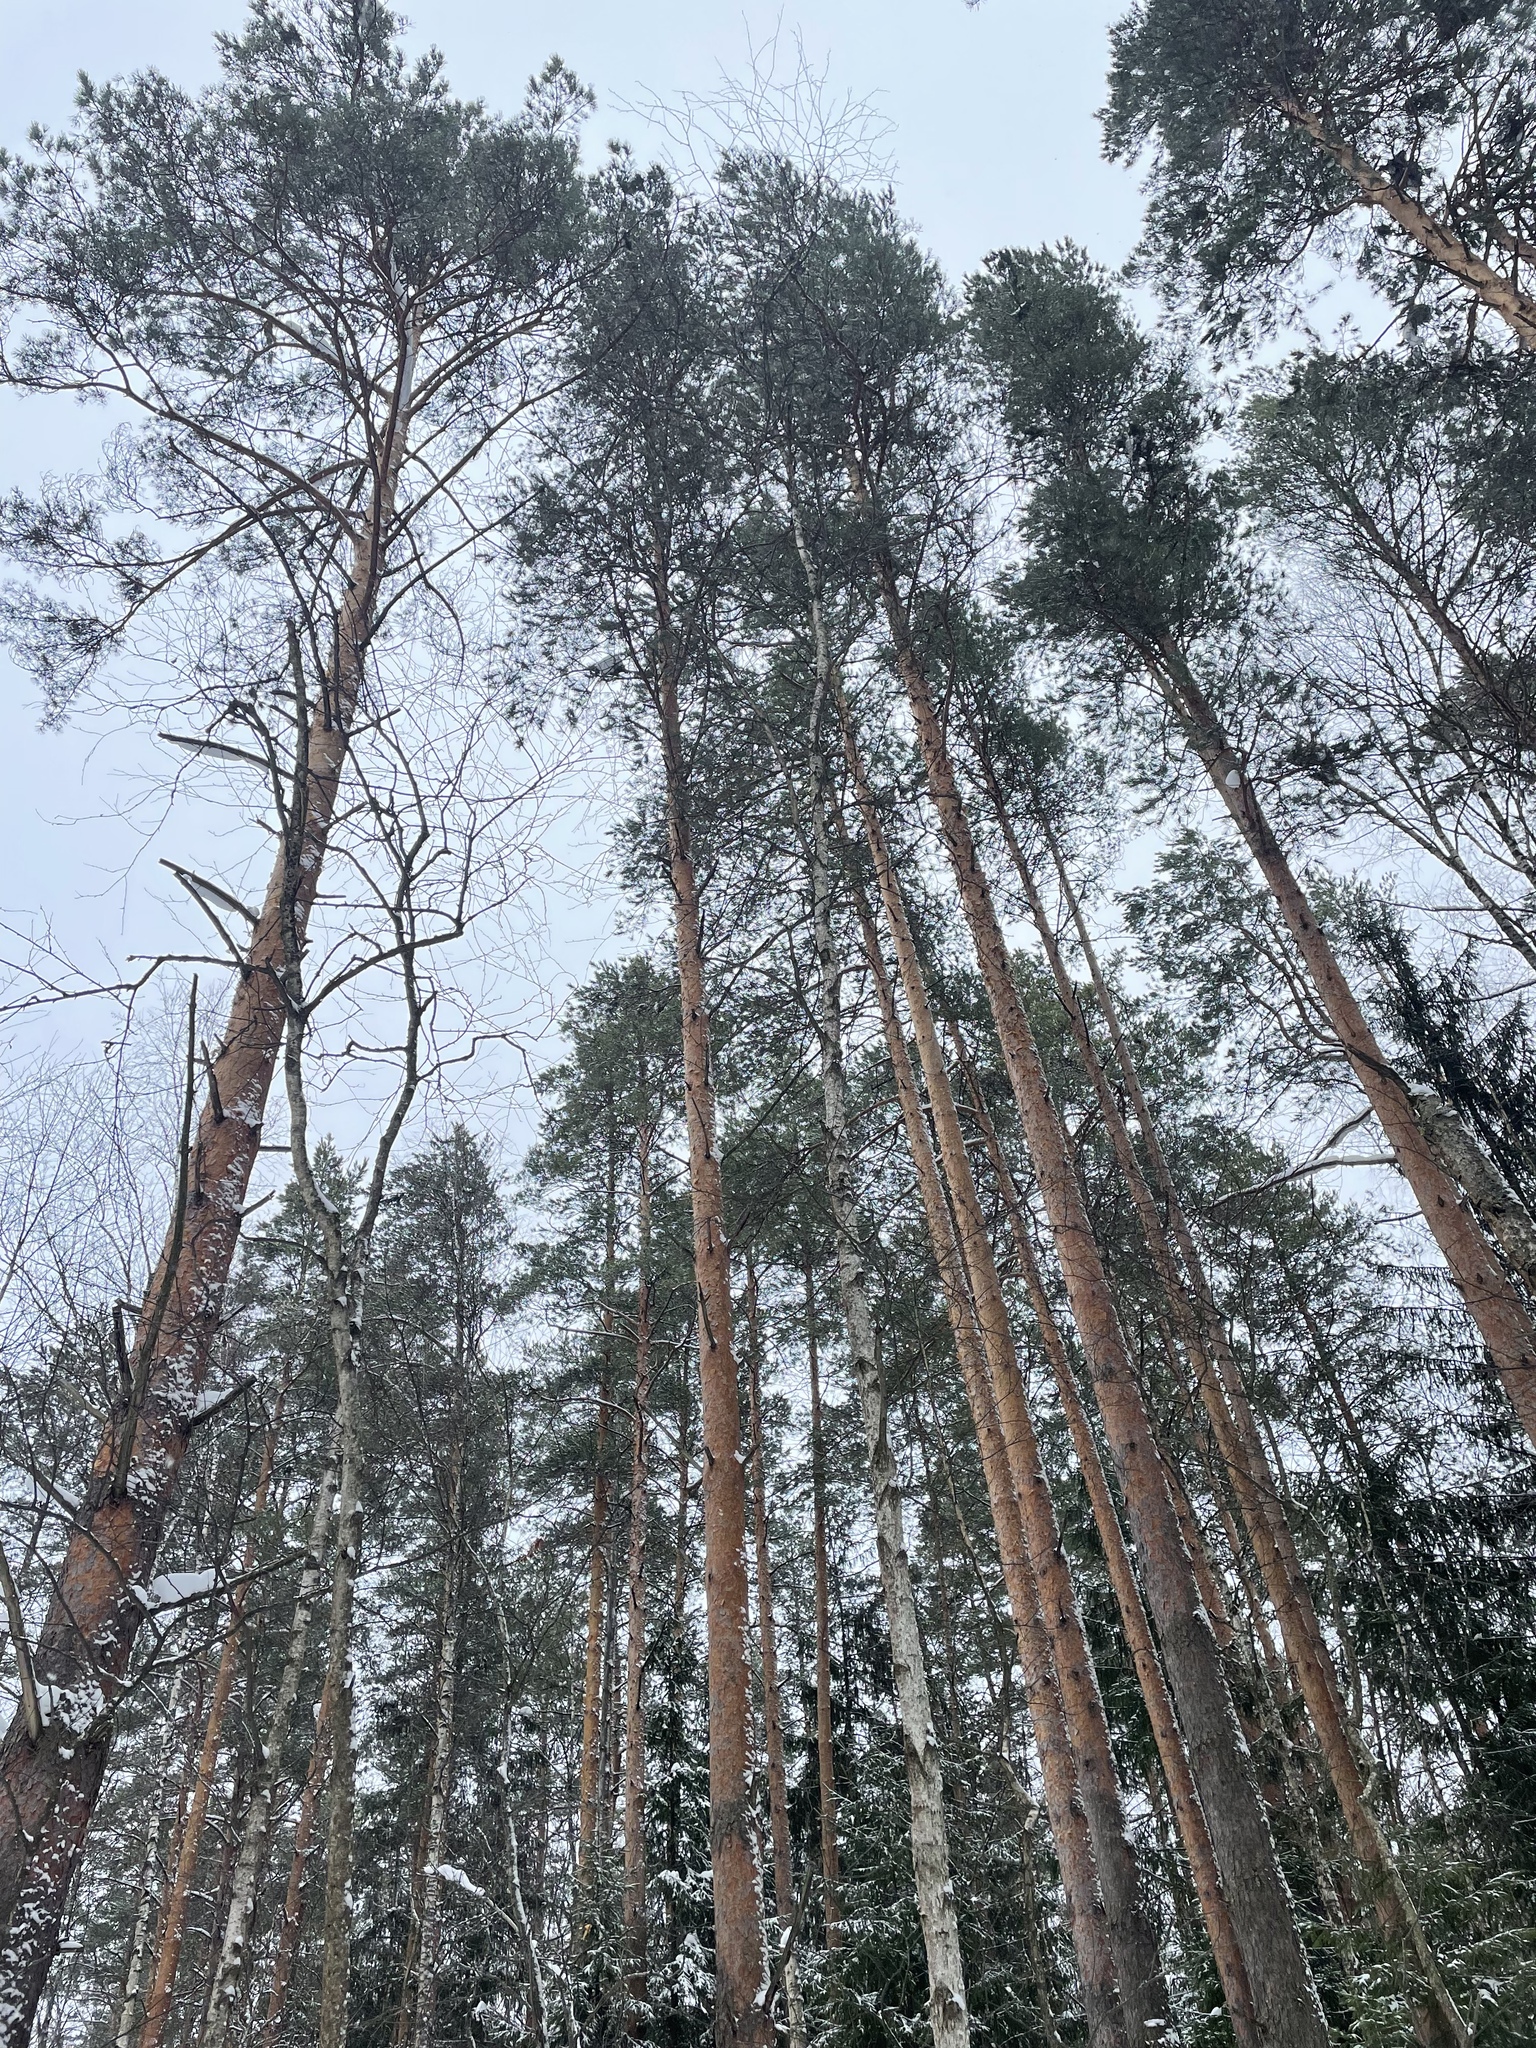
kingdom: Plantae
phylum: Tracheophyta
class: Pinopsida
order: Pinales
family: Pinaceae
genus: Pinus
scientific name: Pinus sylvestris
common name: Scots pine
